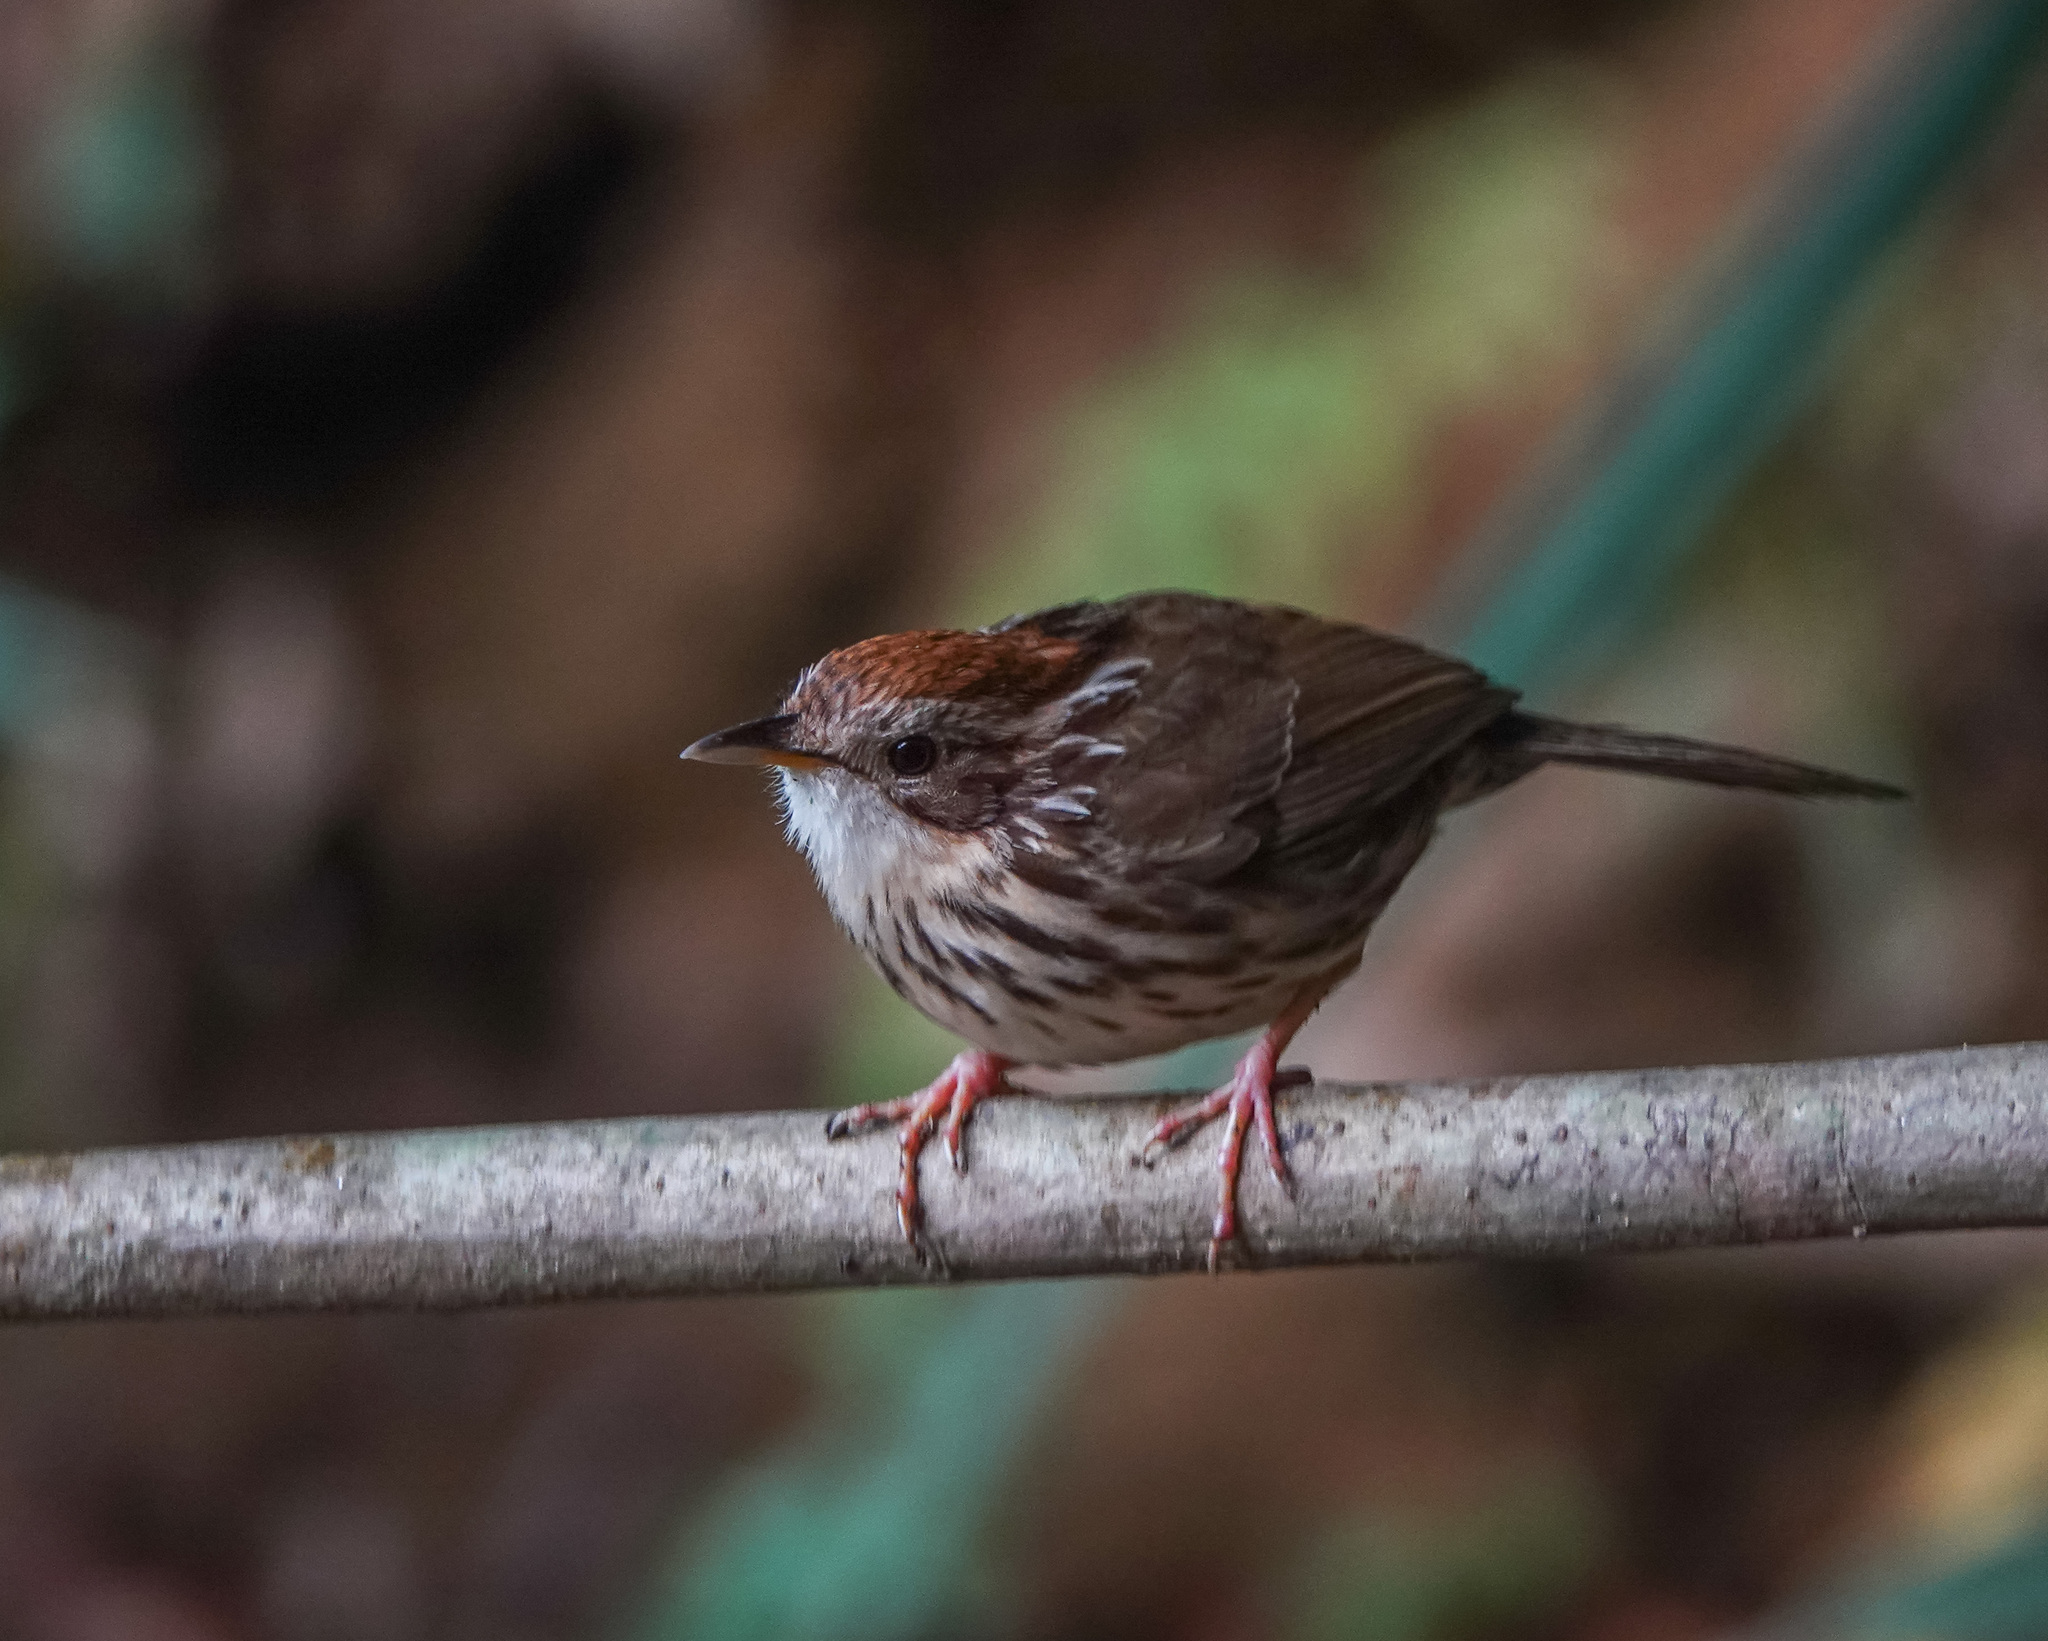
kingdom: Animalia
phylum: Chordata
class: Aves
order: Passeriformes
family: Pellorneidae
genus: Pellorneum
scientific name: Pellorneum ruficeps
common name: Puff-throated babbler
